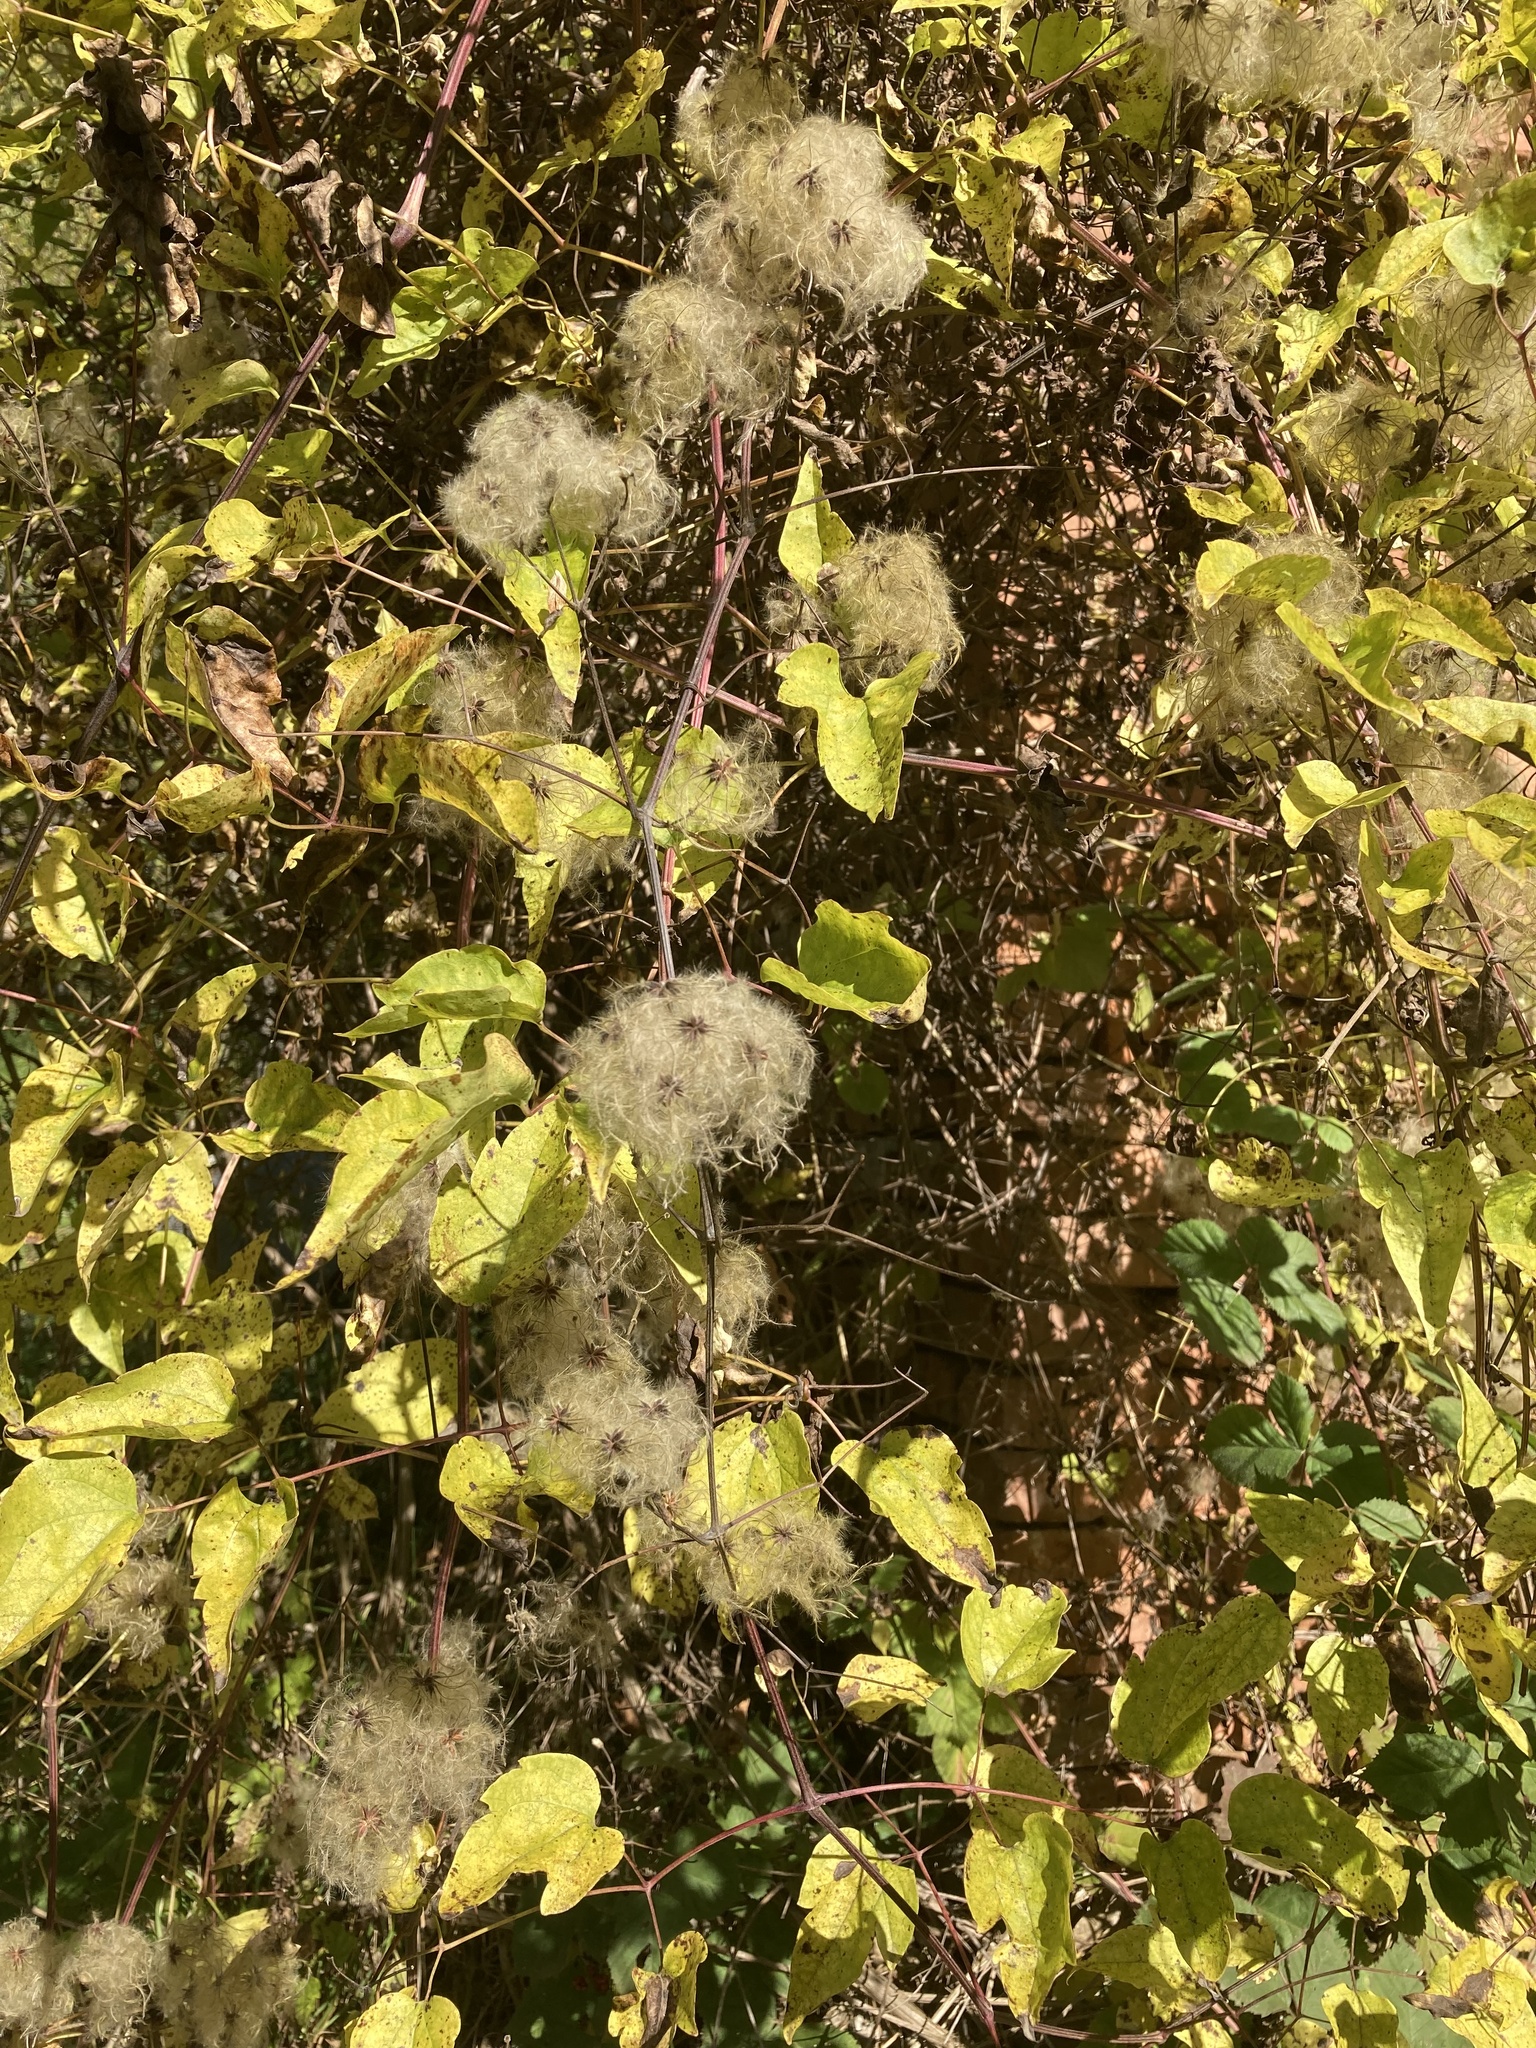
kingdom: Plantae
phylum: Tracheophyta
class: Magnoliopsida
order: Ranunculales
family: Ranunculaceae
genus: Clematis
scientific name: Clematis vitalba
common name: Evergreen clematis
